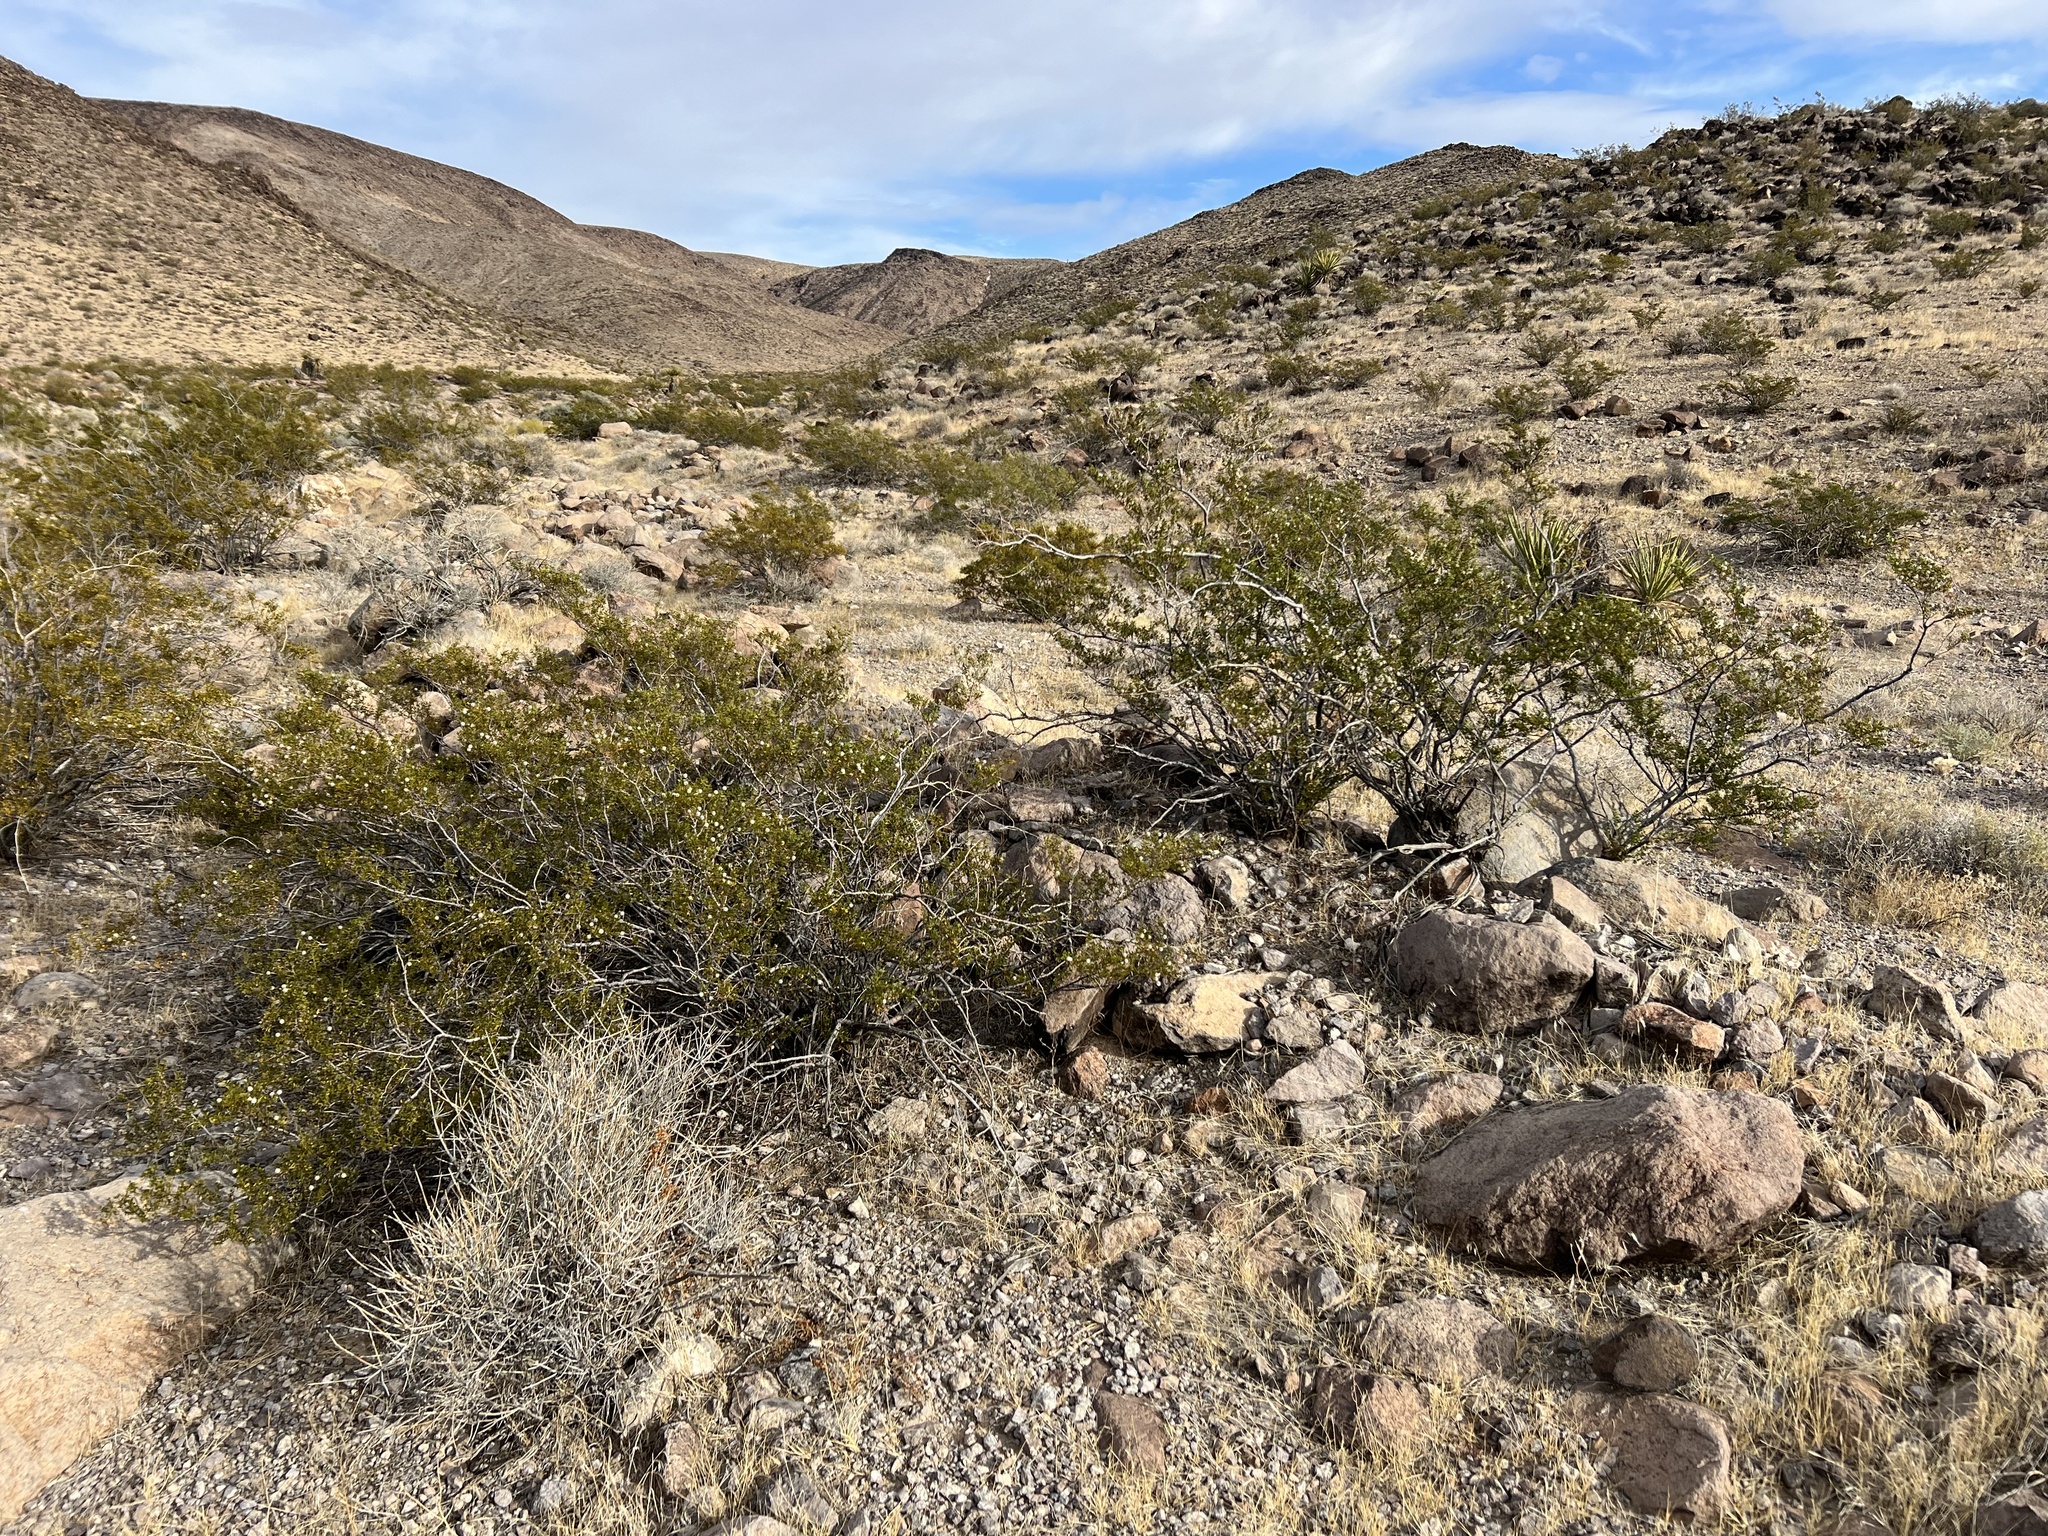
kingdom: Plantae
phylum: Tracheophyta
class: Magnoliopsida
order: Zygophyllales
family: Zygophyllaceae
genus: Larrea
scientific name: Larrea tridentata
